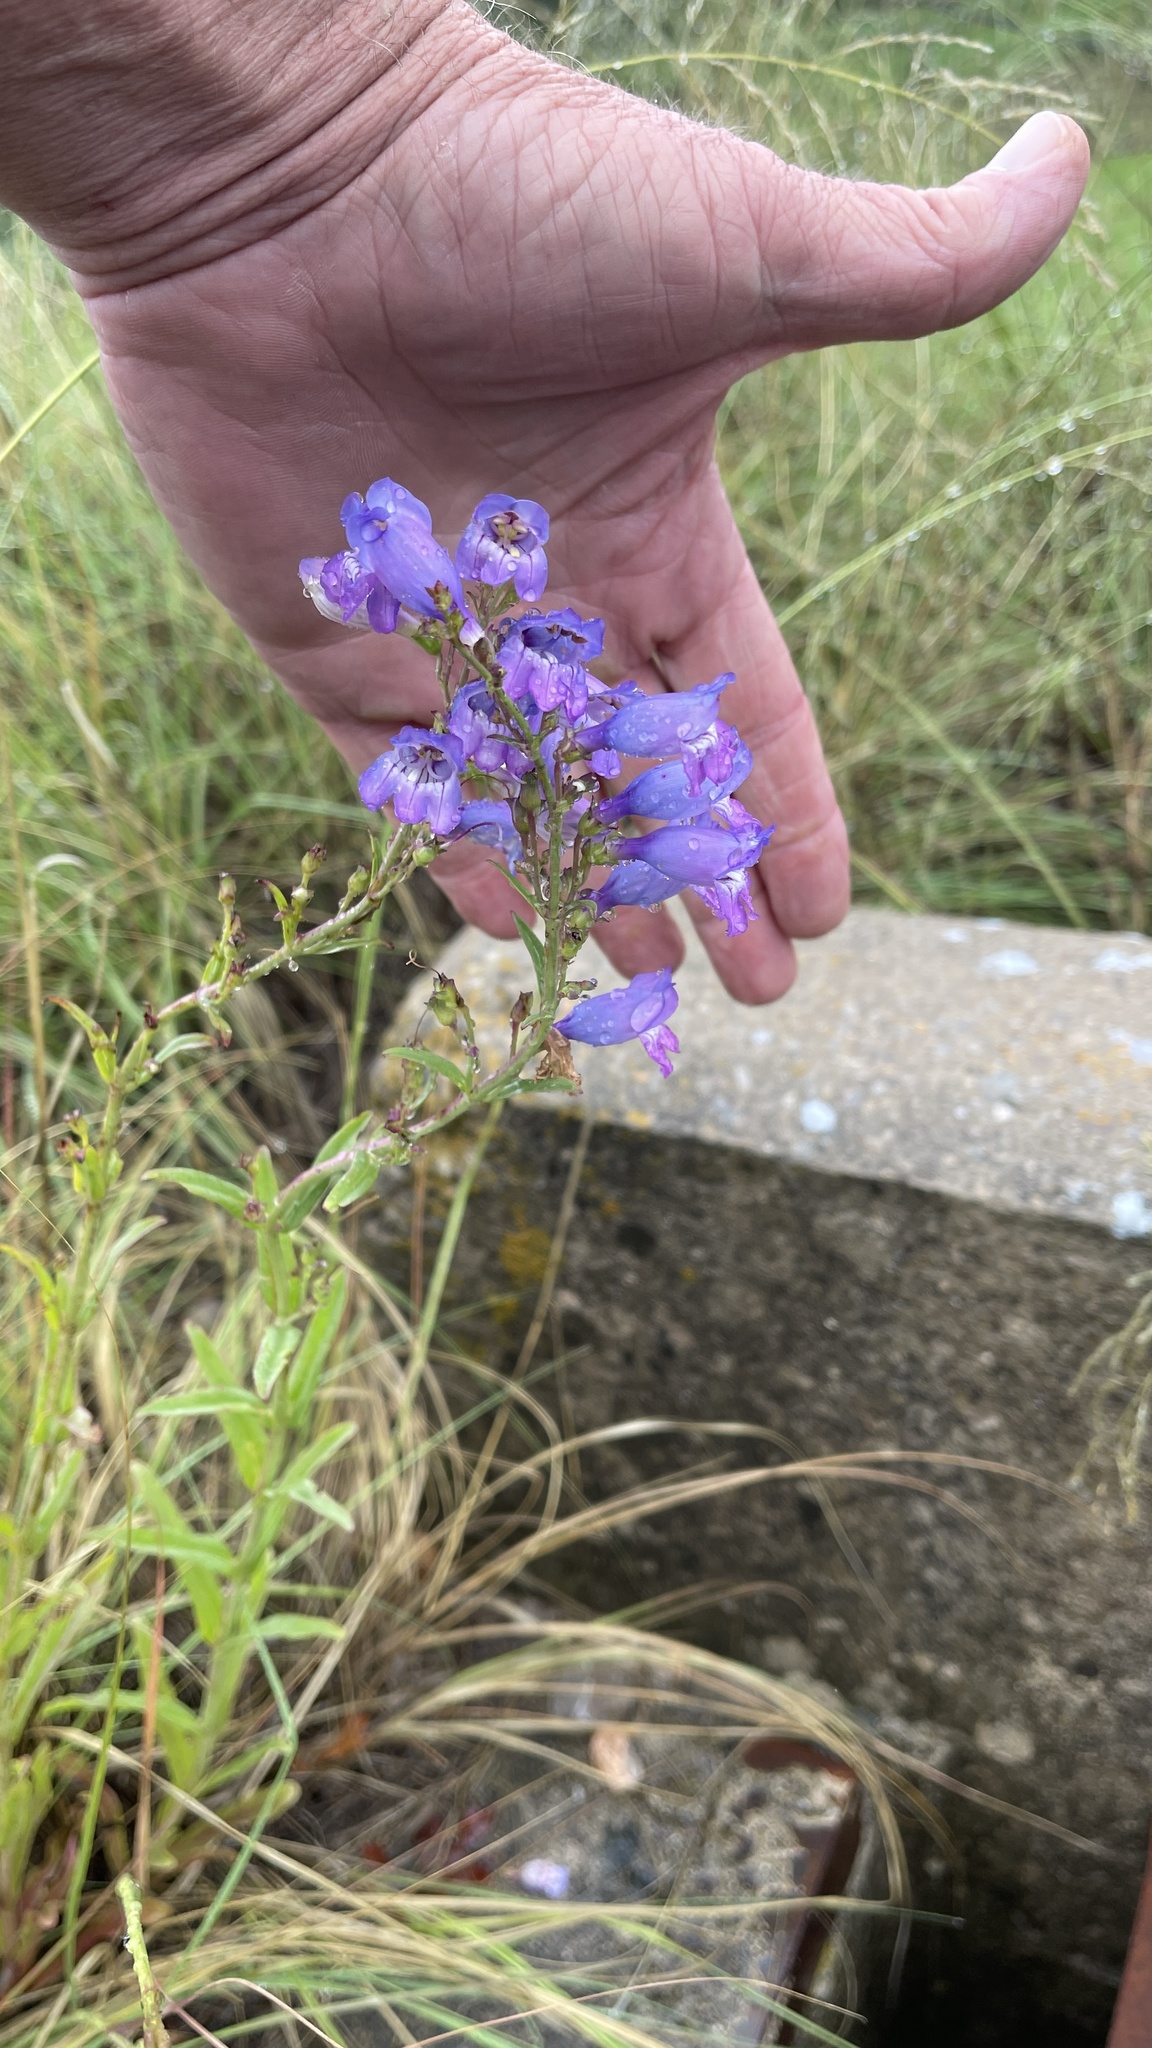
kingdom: Plantae
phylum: Tracheophyta
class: Magnoliopsida
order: Lamiales
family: Plantaginaceae
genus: Penstemon
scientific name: Penstemon neomexicanus
